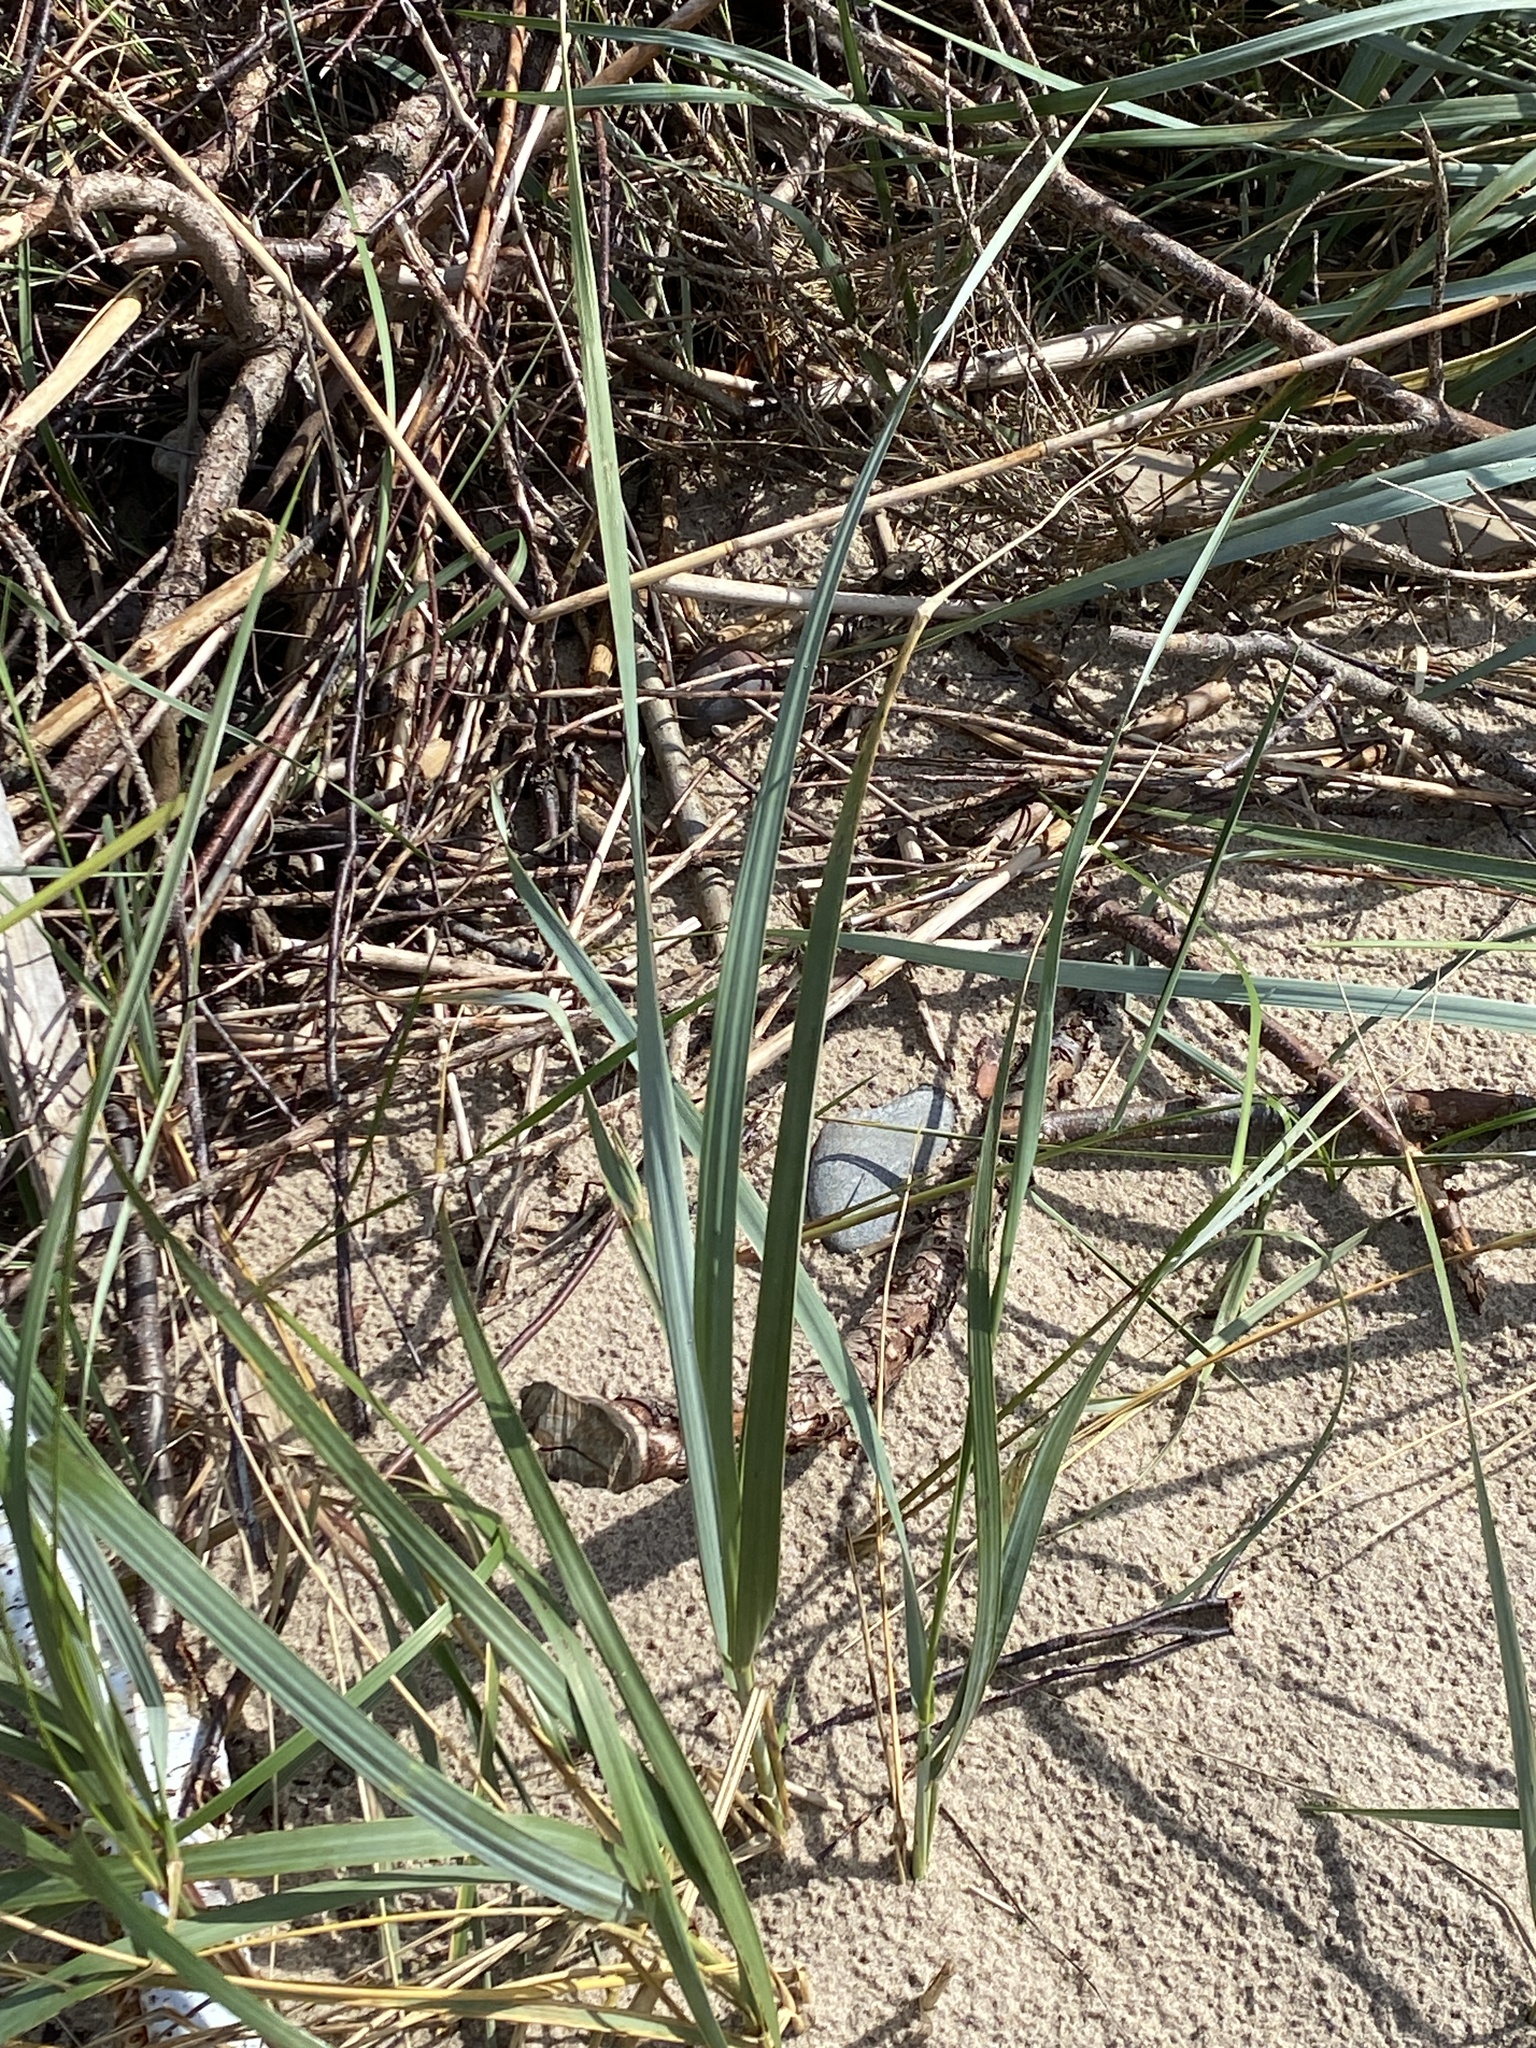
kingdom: Plantae
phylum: Tracheophyta
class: Liliopsida
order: Poales
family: Poaceae
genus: Leymus
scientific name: Leymus arenarius
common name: Lyme-grass
